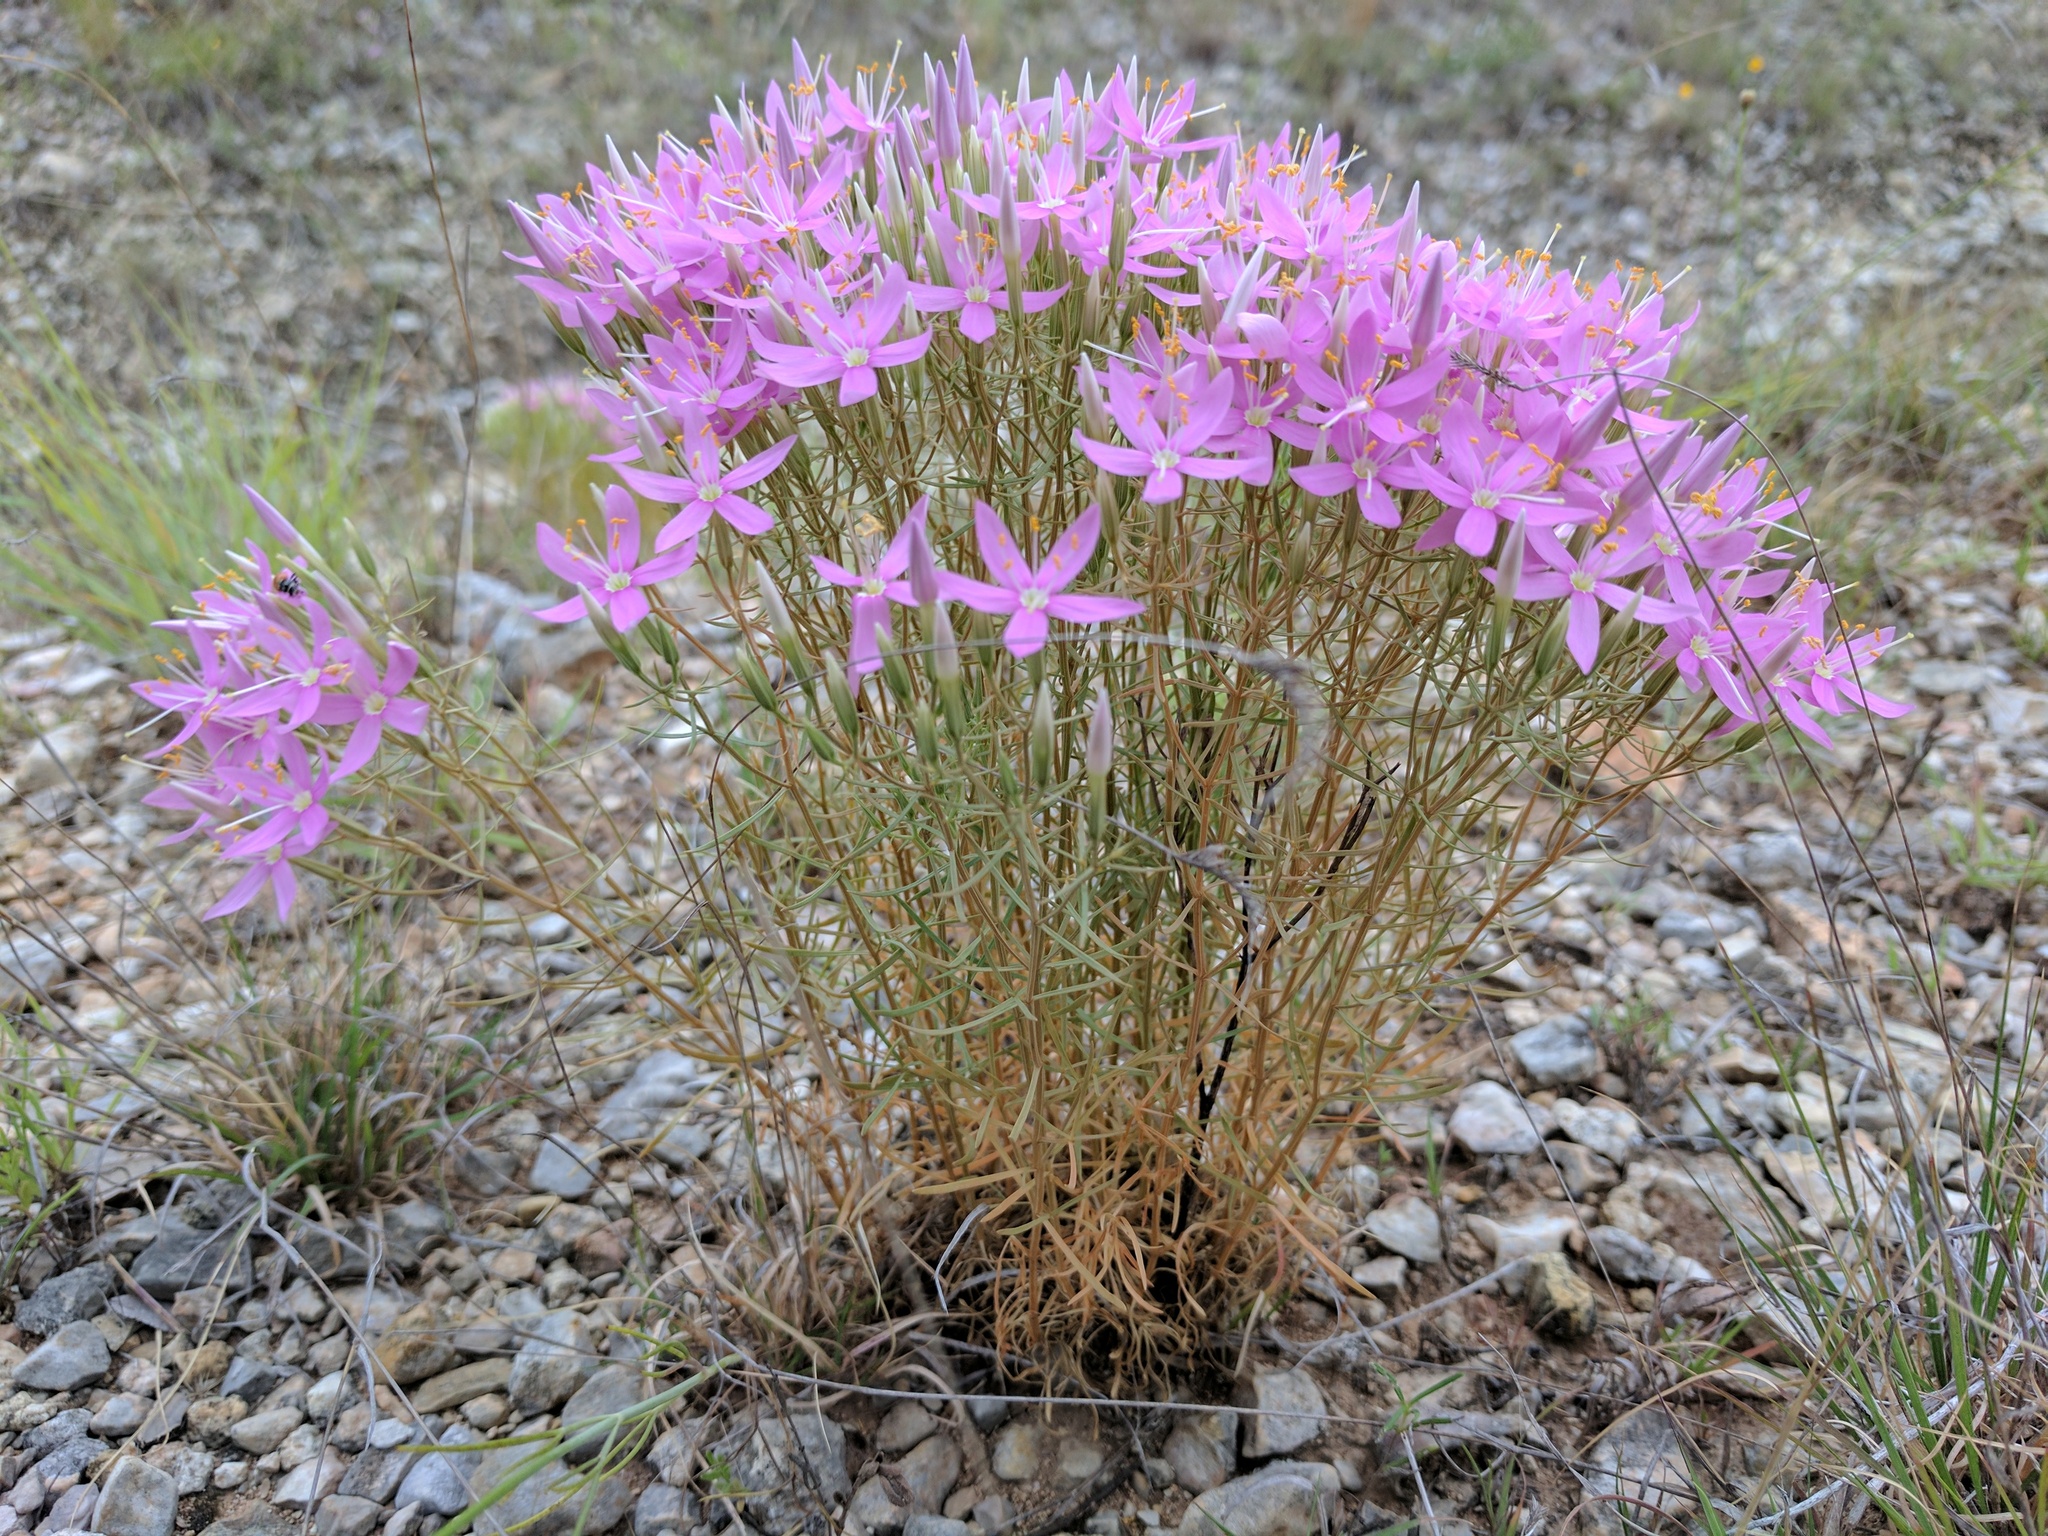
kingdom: Plantae
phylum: Tracheophyta
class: Magnoliopsida
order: Gentianales
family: Gentianaceae
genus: Zeltnera
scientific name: Zeltnera beyrichii
